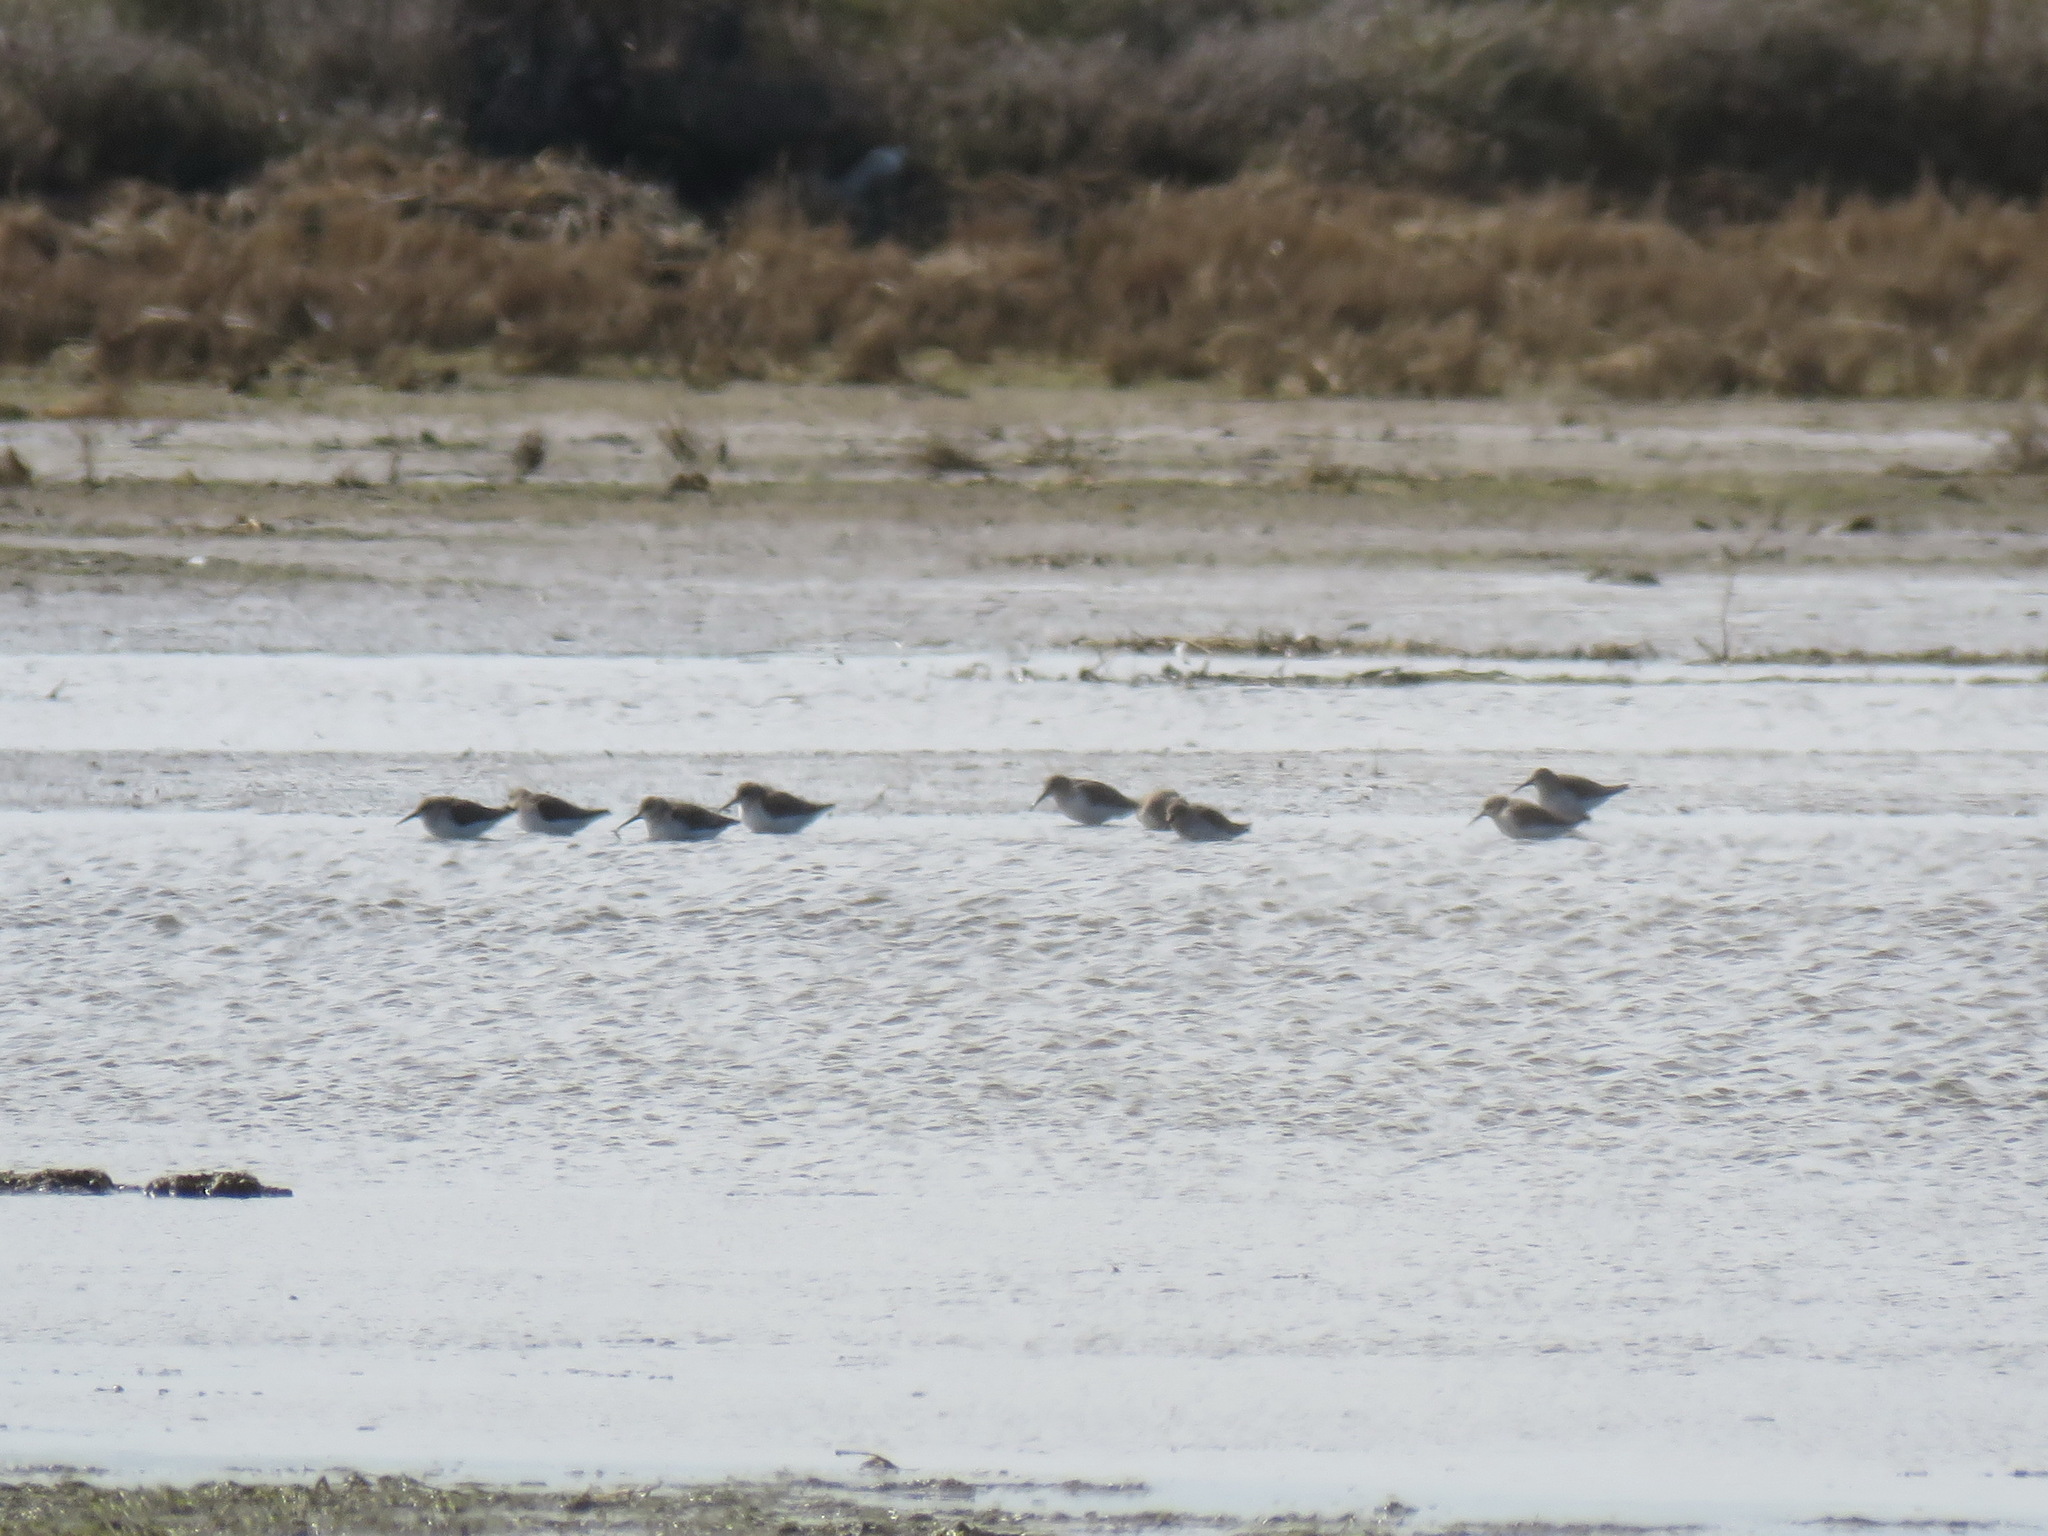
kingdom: Animalia
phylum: Chordata
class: Aves
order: Charadriiformes
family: Scolopacidae
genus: Calidris
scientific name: Calidris alpina
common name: Dunlin
